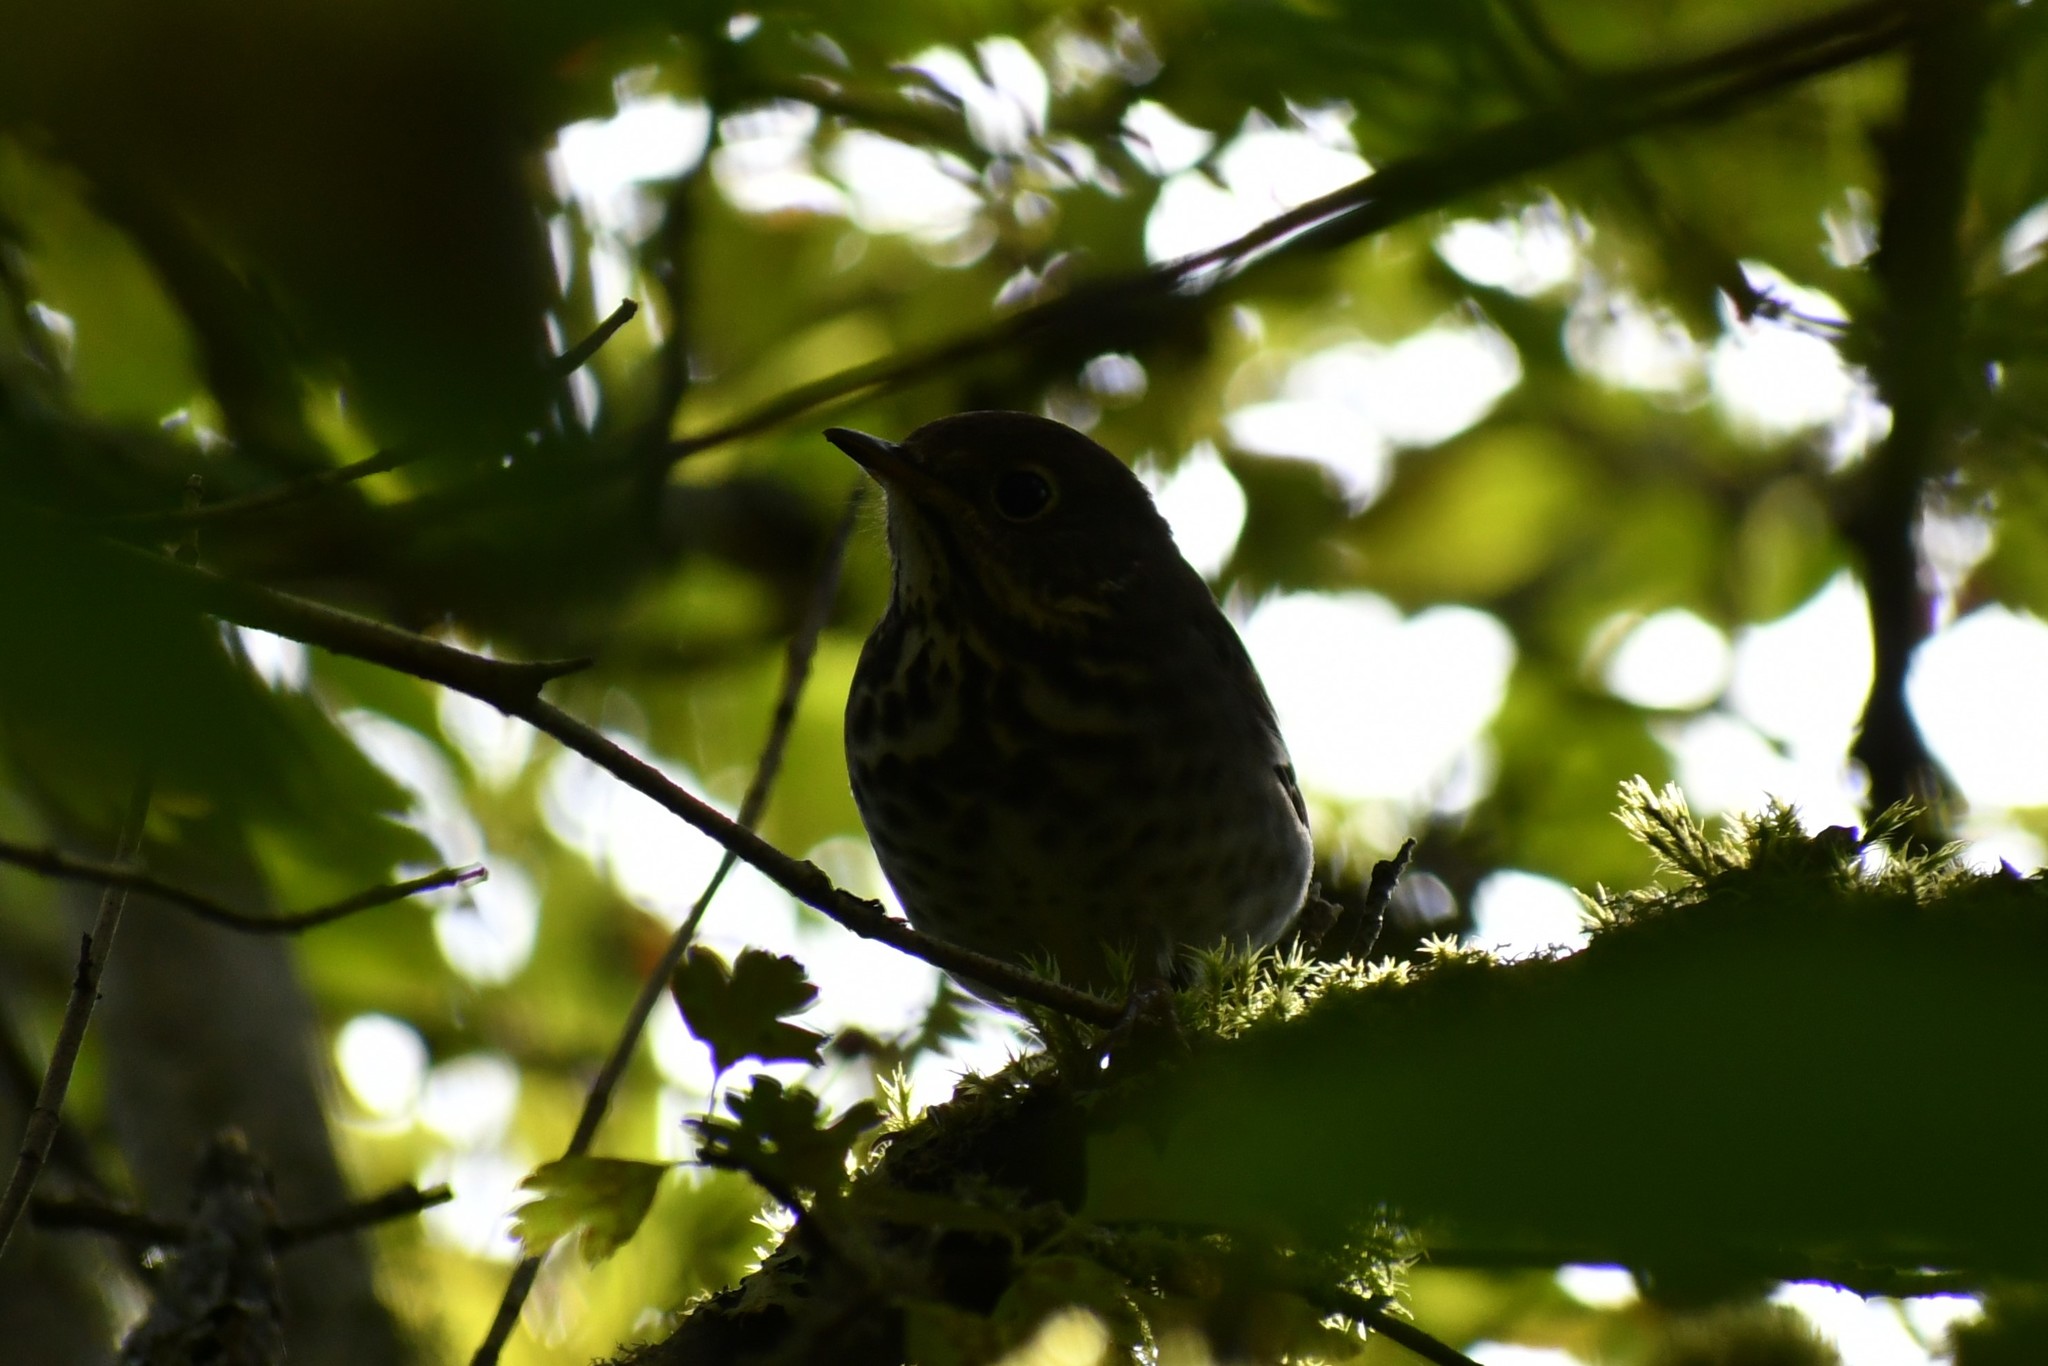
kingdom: Animalia
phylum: Chordata
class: Aves
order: Passeriformes
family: Turdidae
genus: Catharus
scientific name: Catharus guttatus
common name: Hermit thrush
